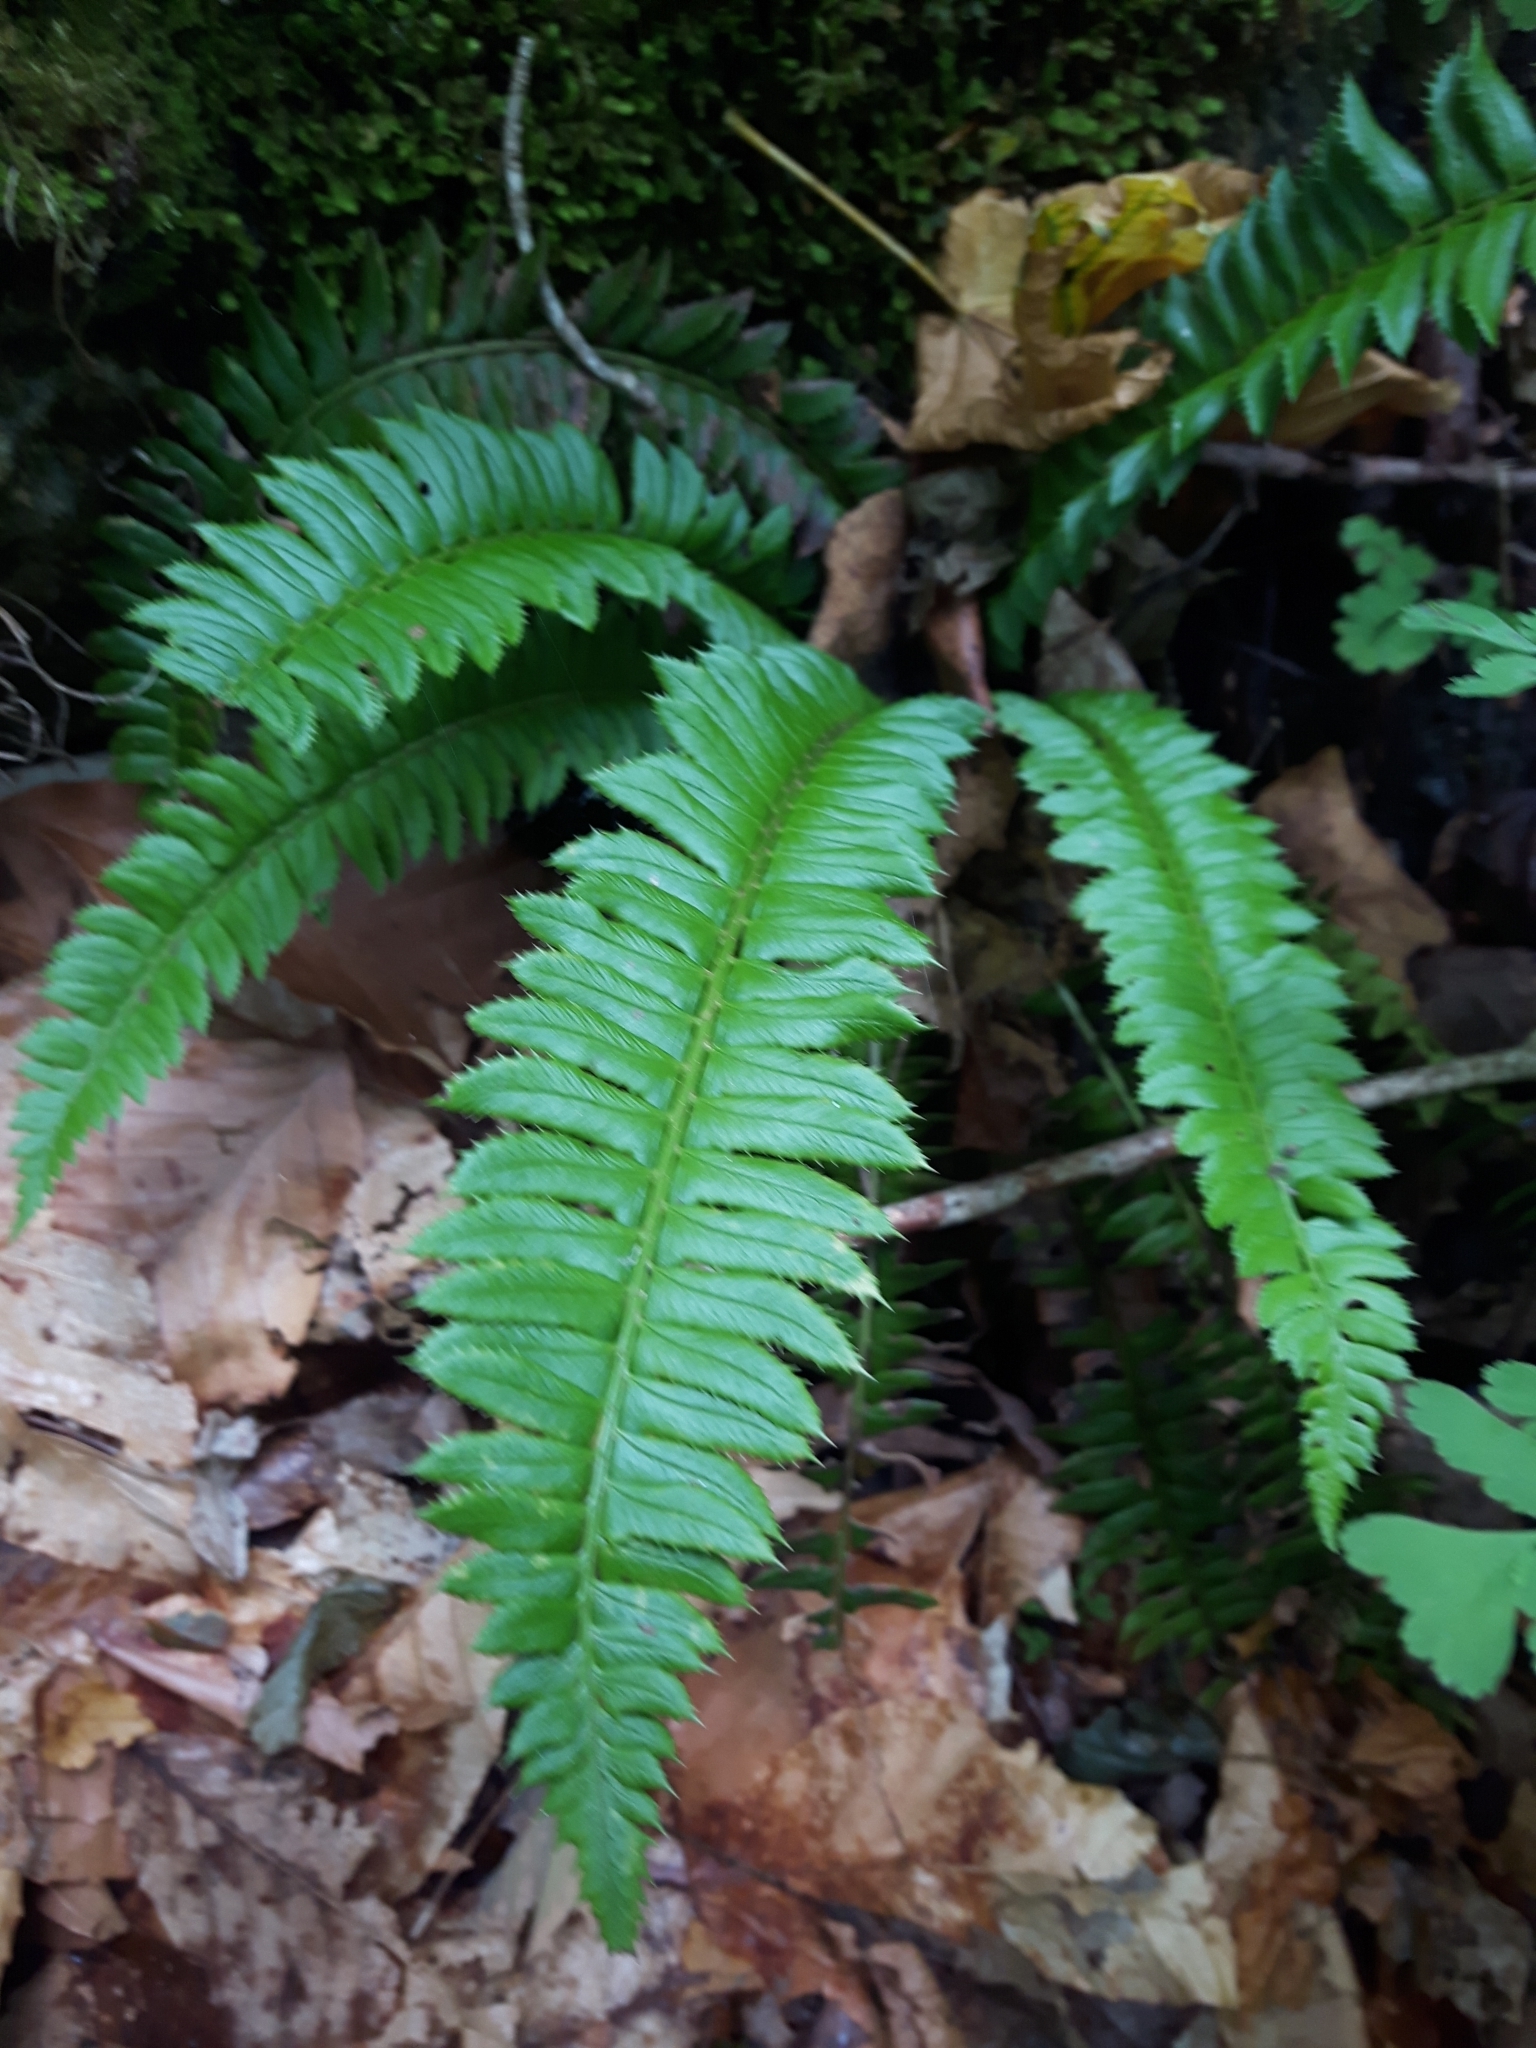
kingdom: Plantae
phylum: Tracheophyta
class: Polypodiopsida
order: Polypodiales
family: Dryopteridaceae
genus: Polystichum
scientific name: Polystichum lonchitis
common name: Holly fern
